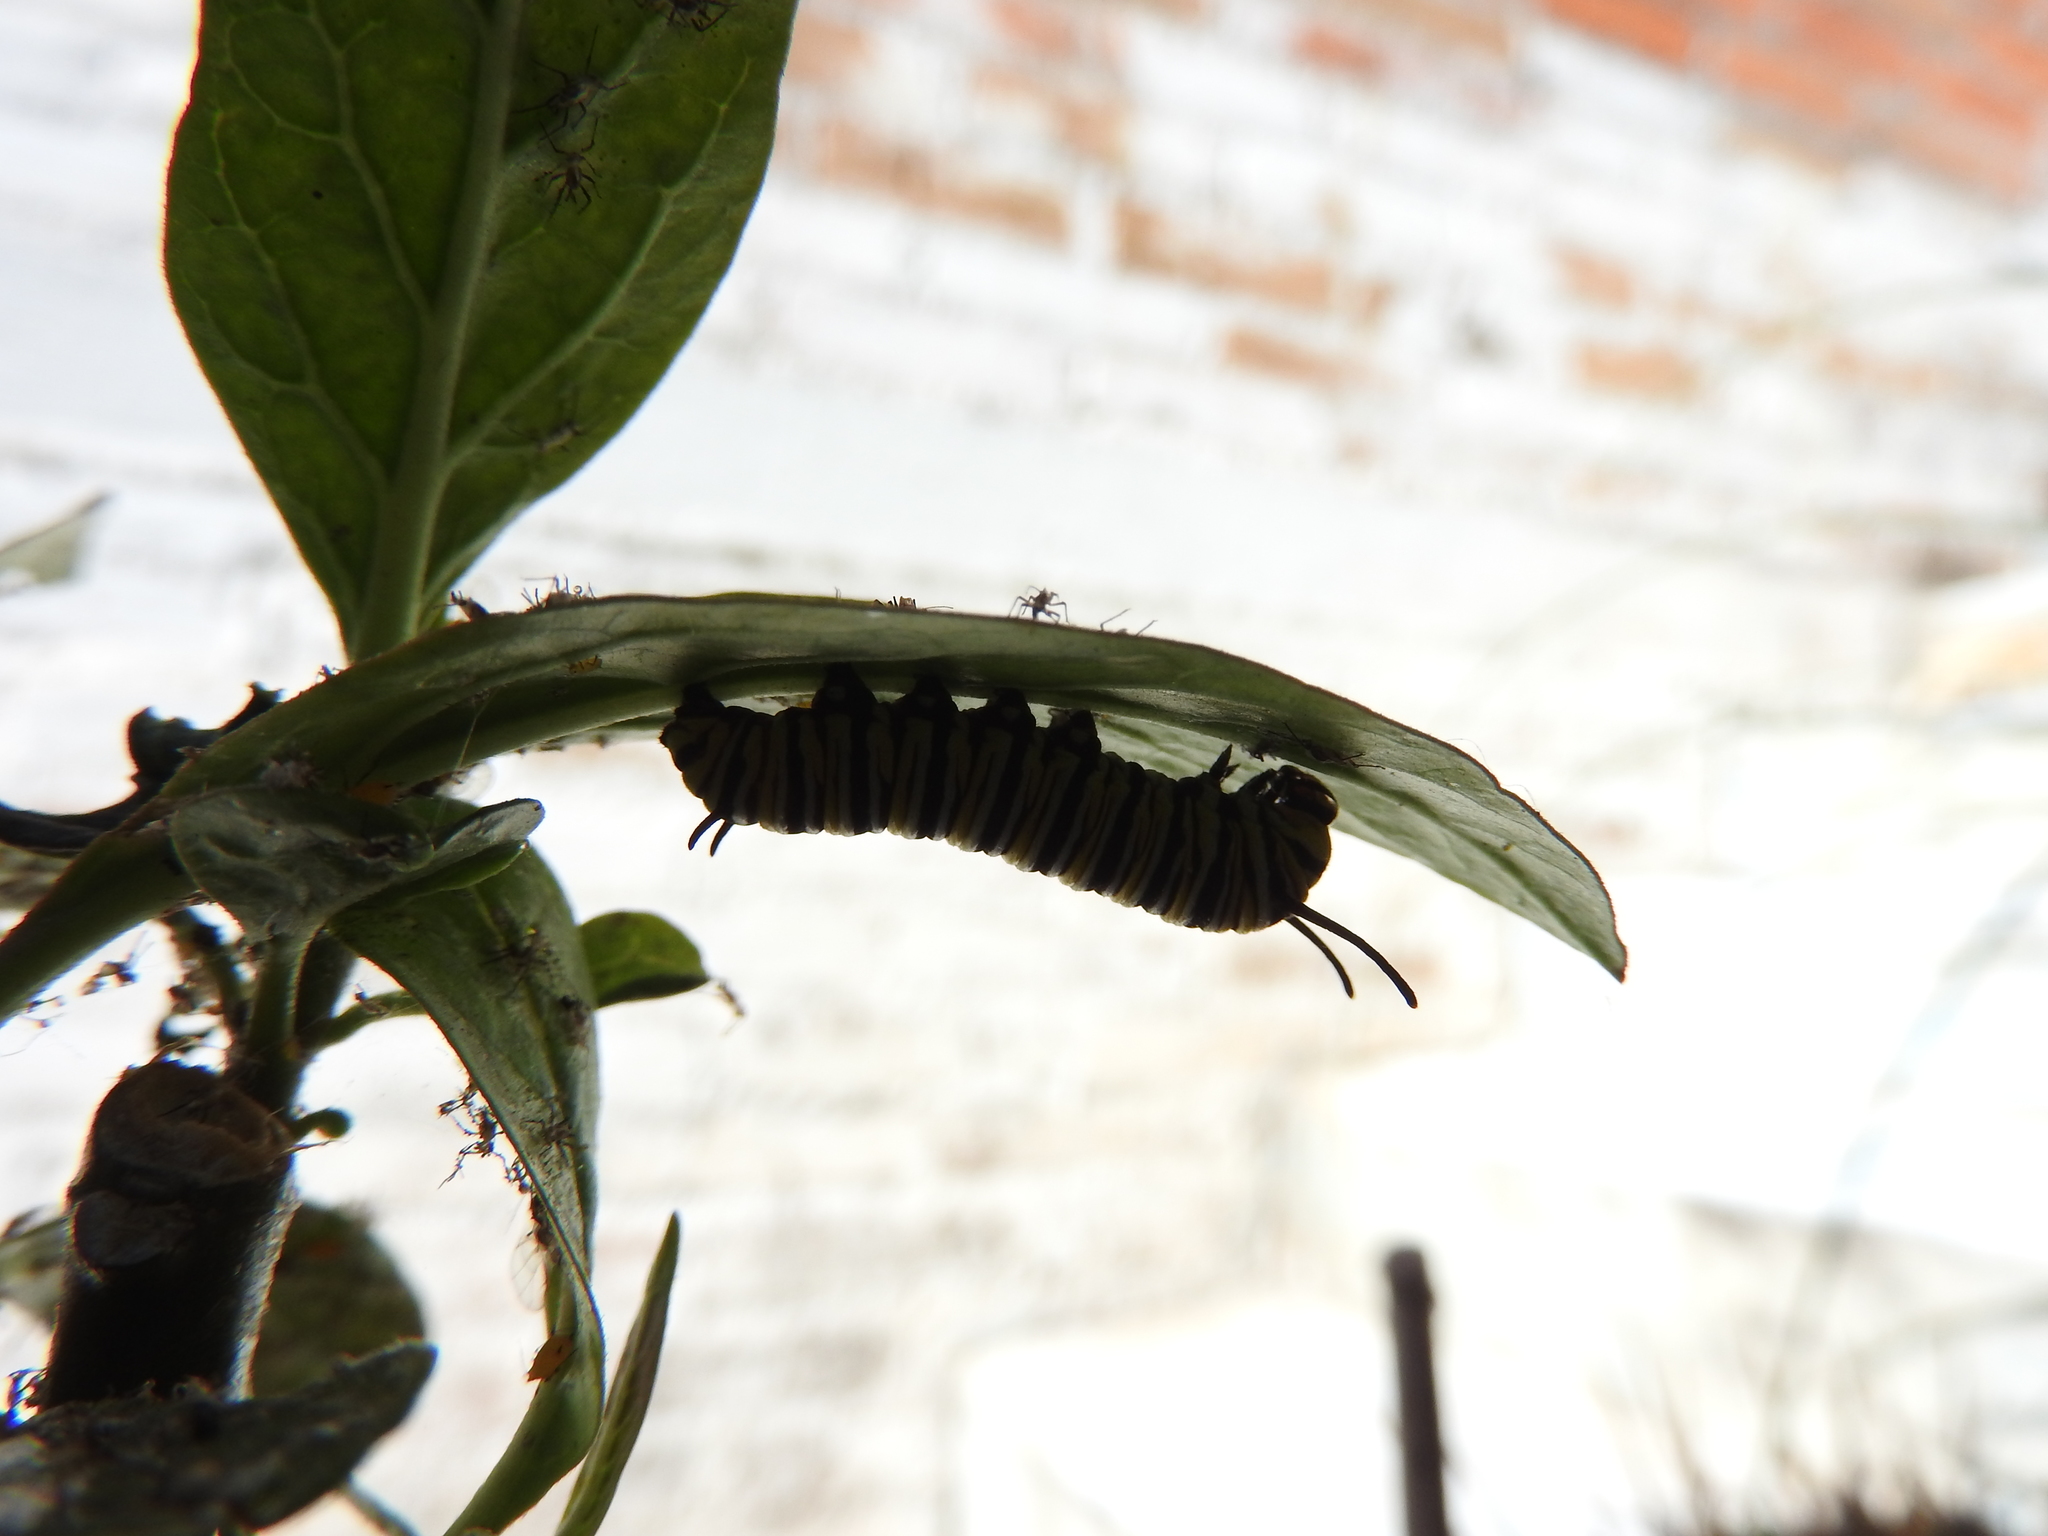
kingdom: Animalia
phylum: Arthropoda
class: Insecta
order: Lepidoptera
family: Nymphalidae
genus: Danaus
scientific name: Danaus plexippus
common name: Monarch
